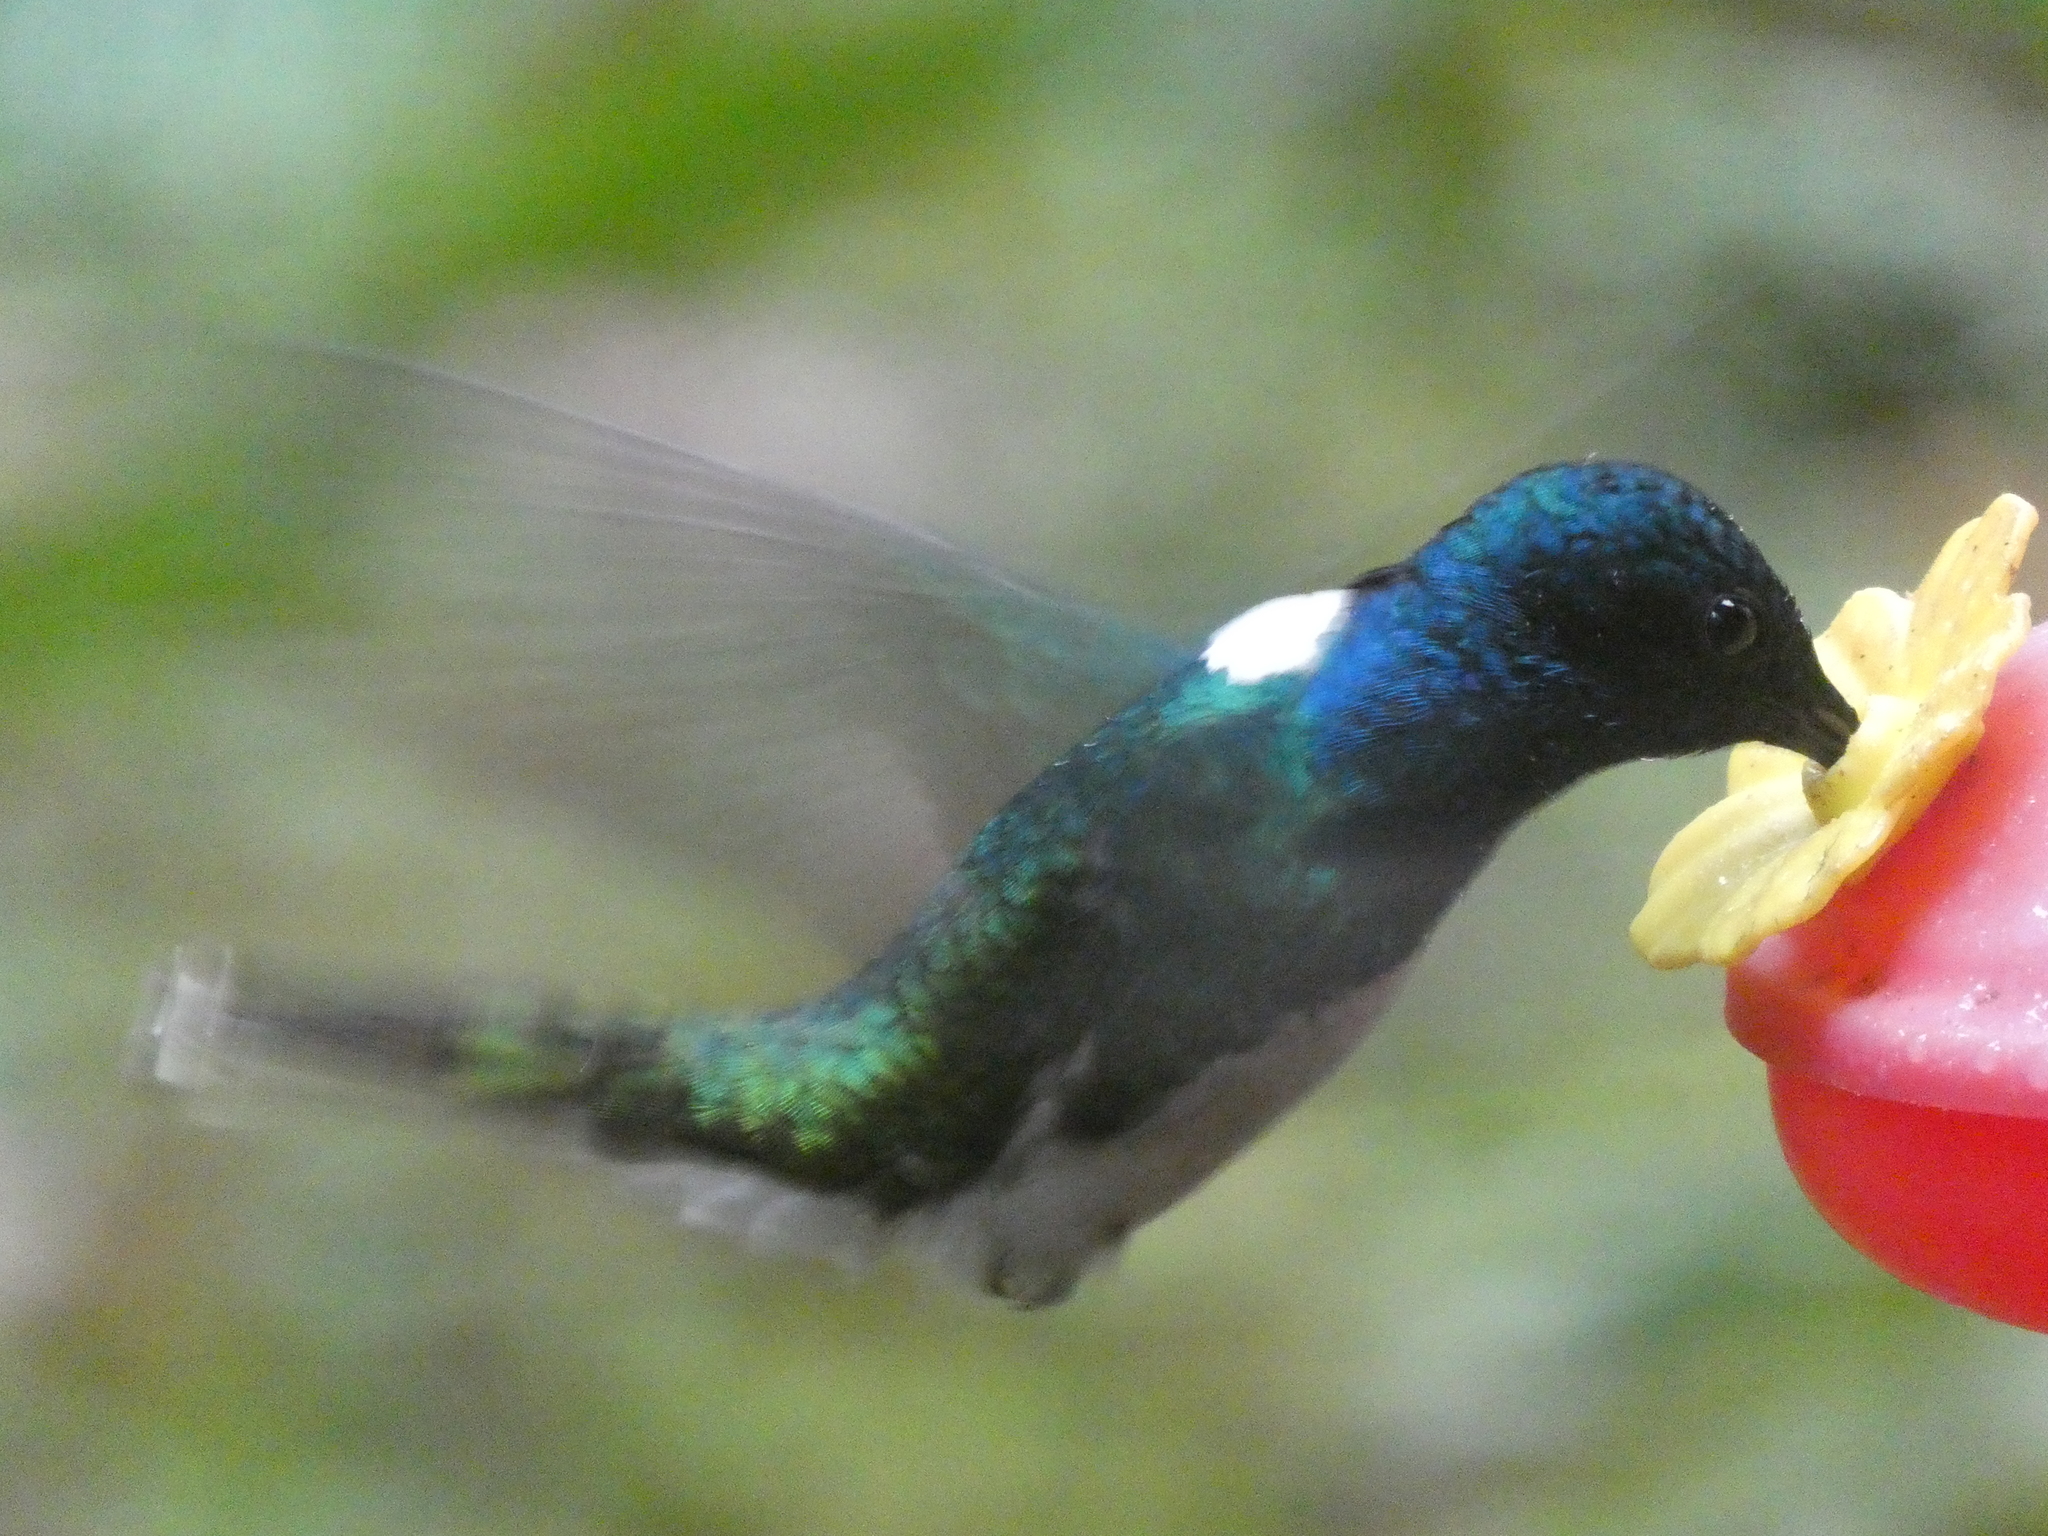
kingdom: Animalia
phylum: Chordata
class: Aves
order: Apodiformes
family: Trochilidae
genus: Florisuga
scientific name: Florisuga mellivora
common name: White-necked jacobin
